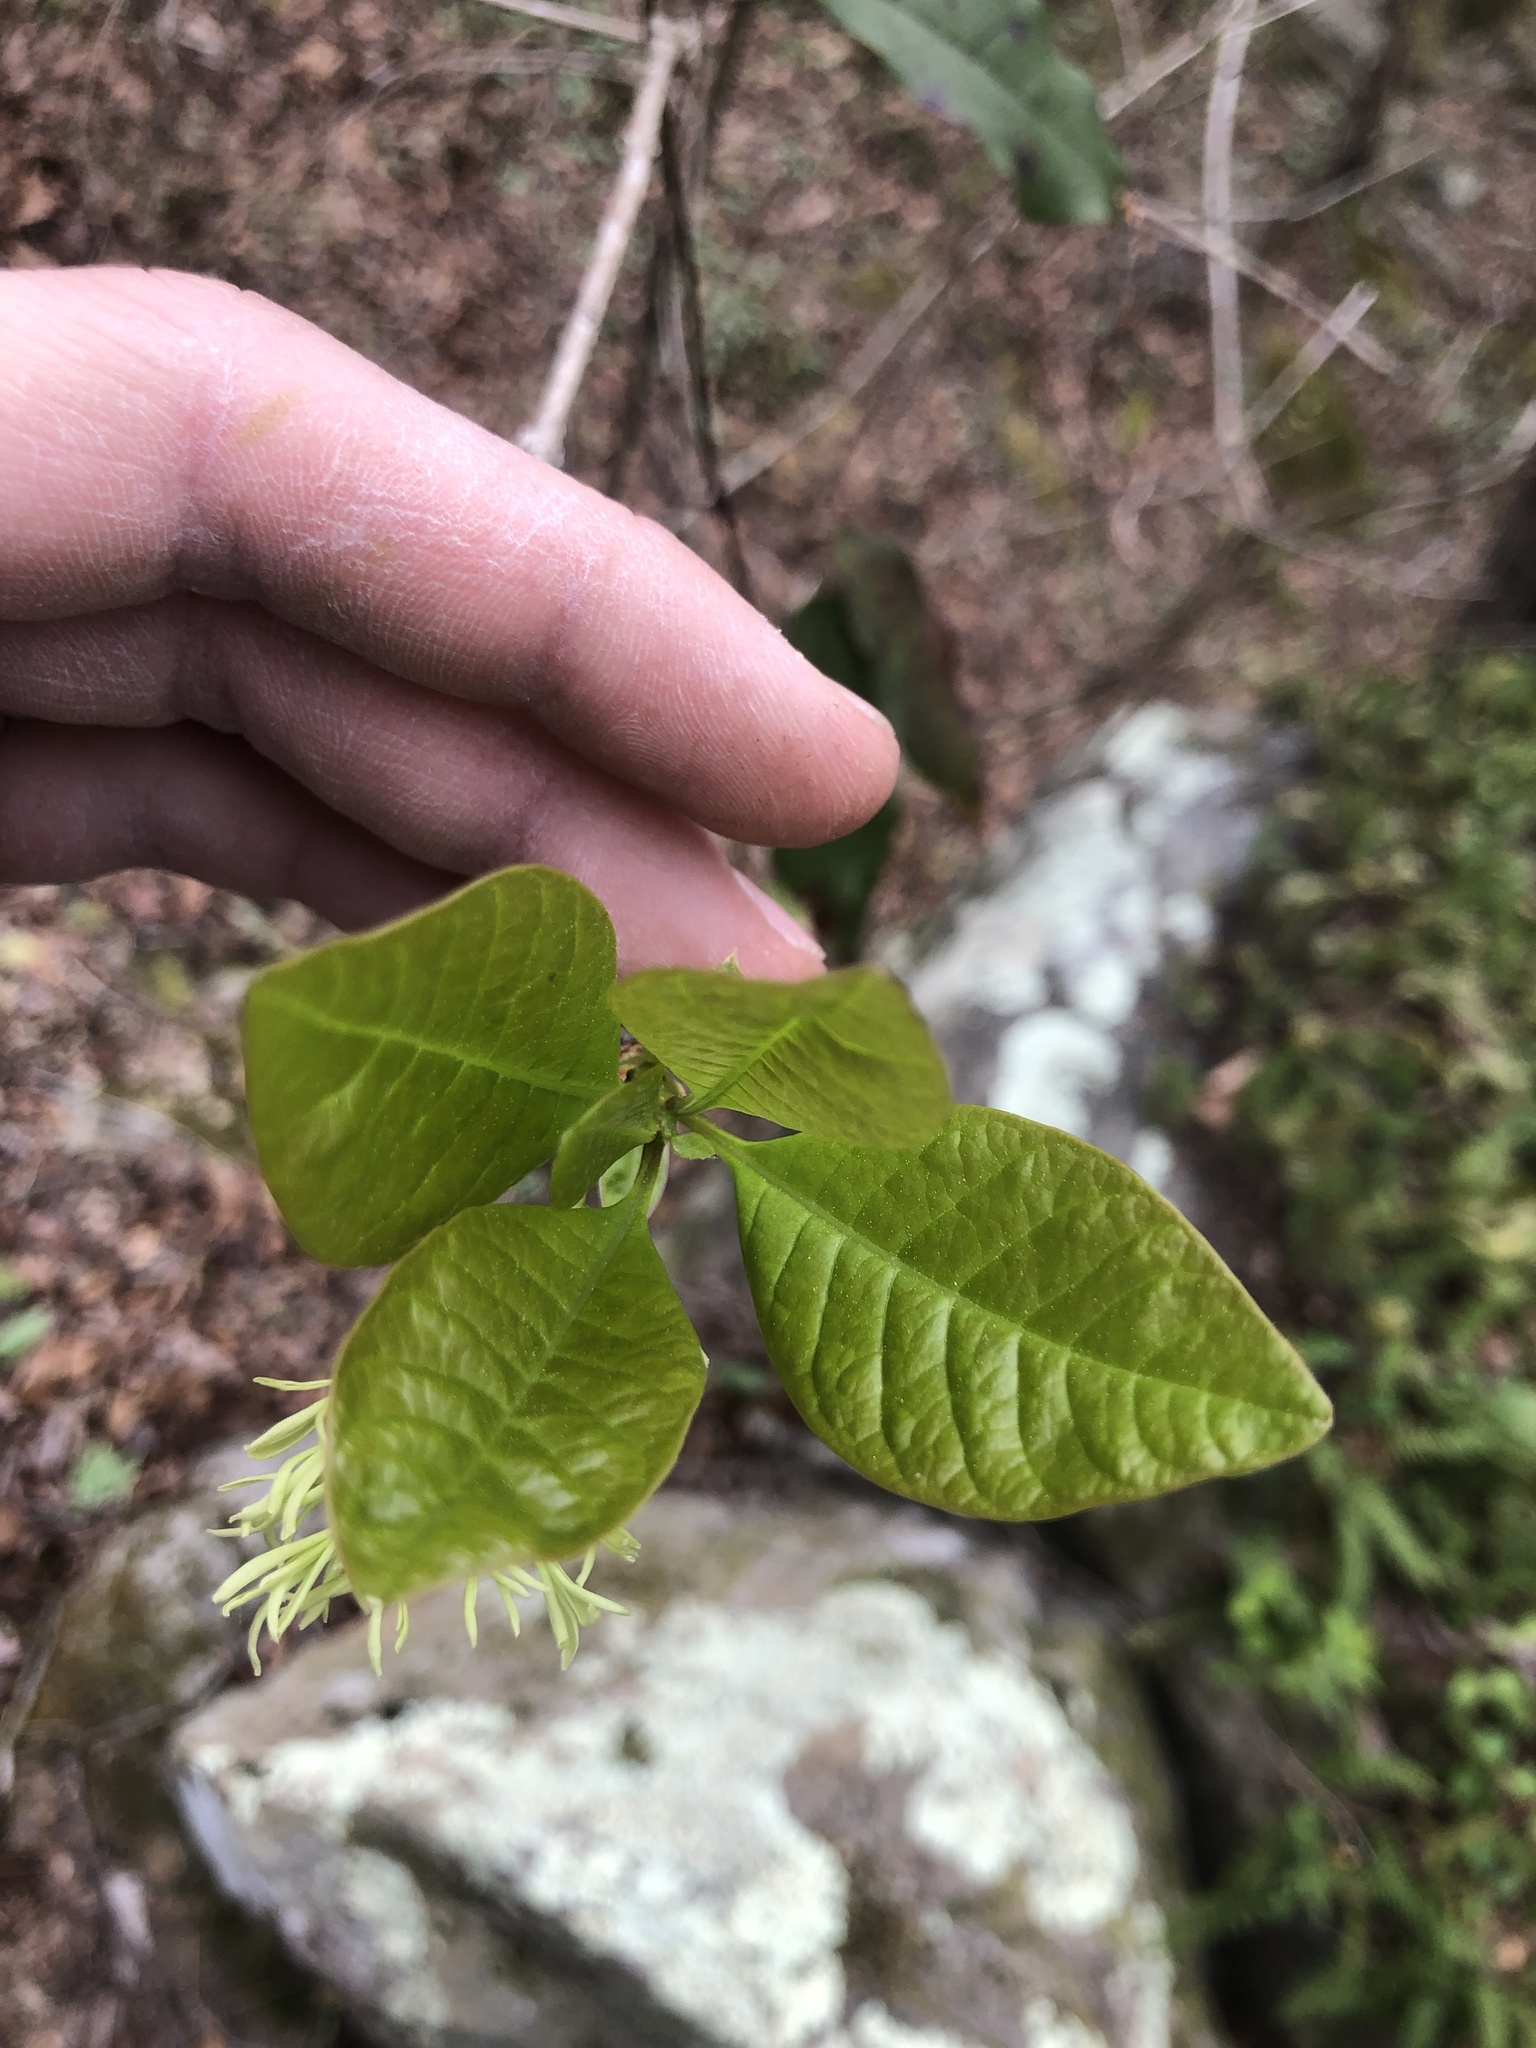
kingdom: Plantae
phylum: Tracheophyta
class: Magnoliopsida
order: Lamiales
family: Oleaceae
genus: Chionanthus
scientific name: Chionanthus virginicus
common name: American fringetree
